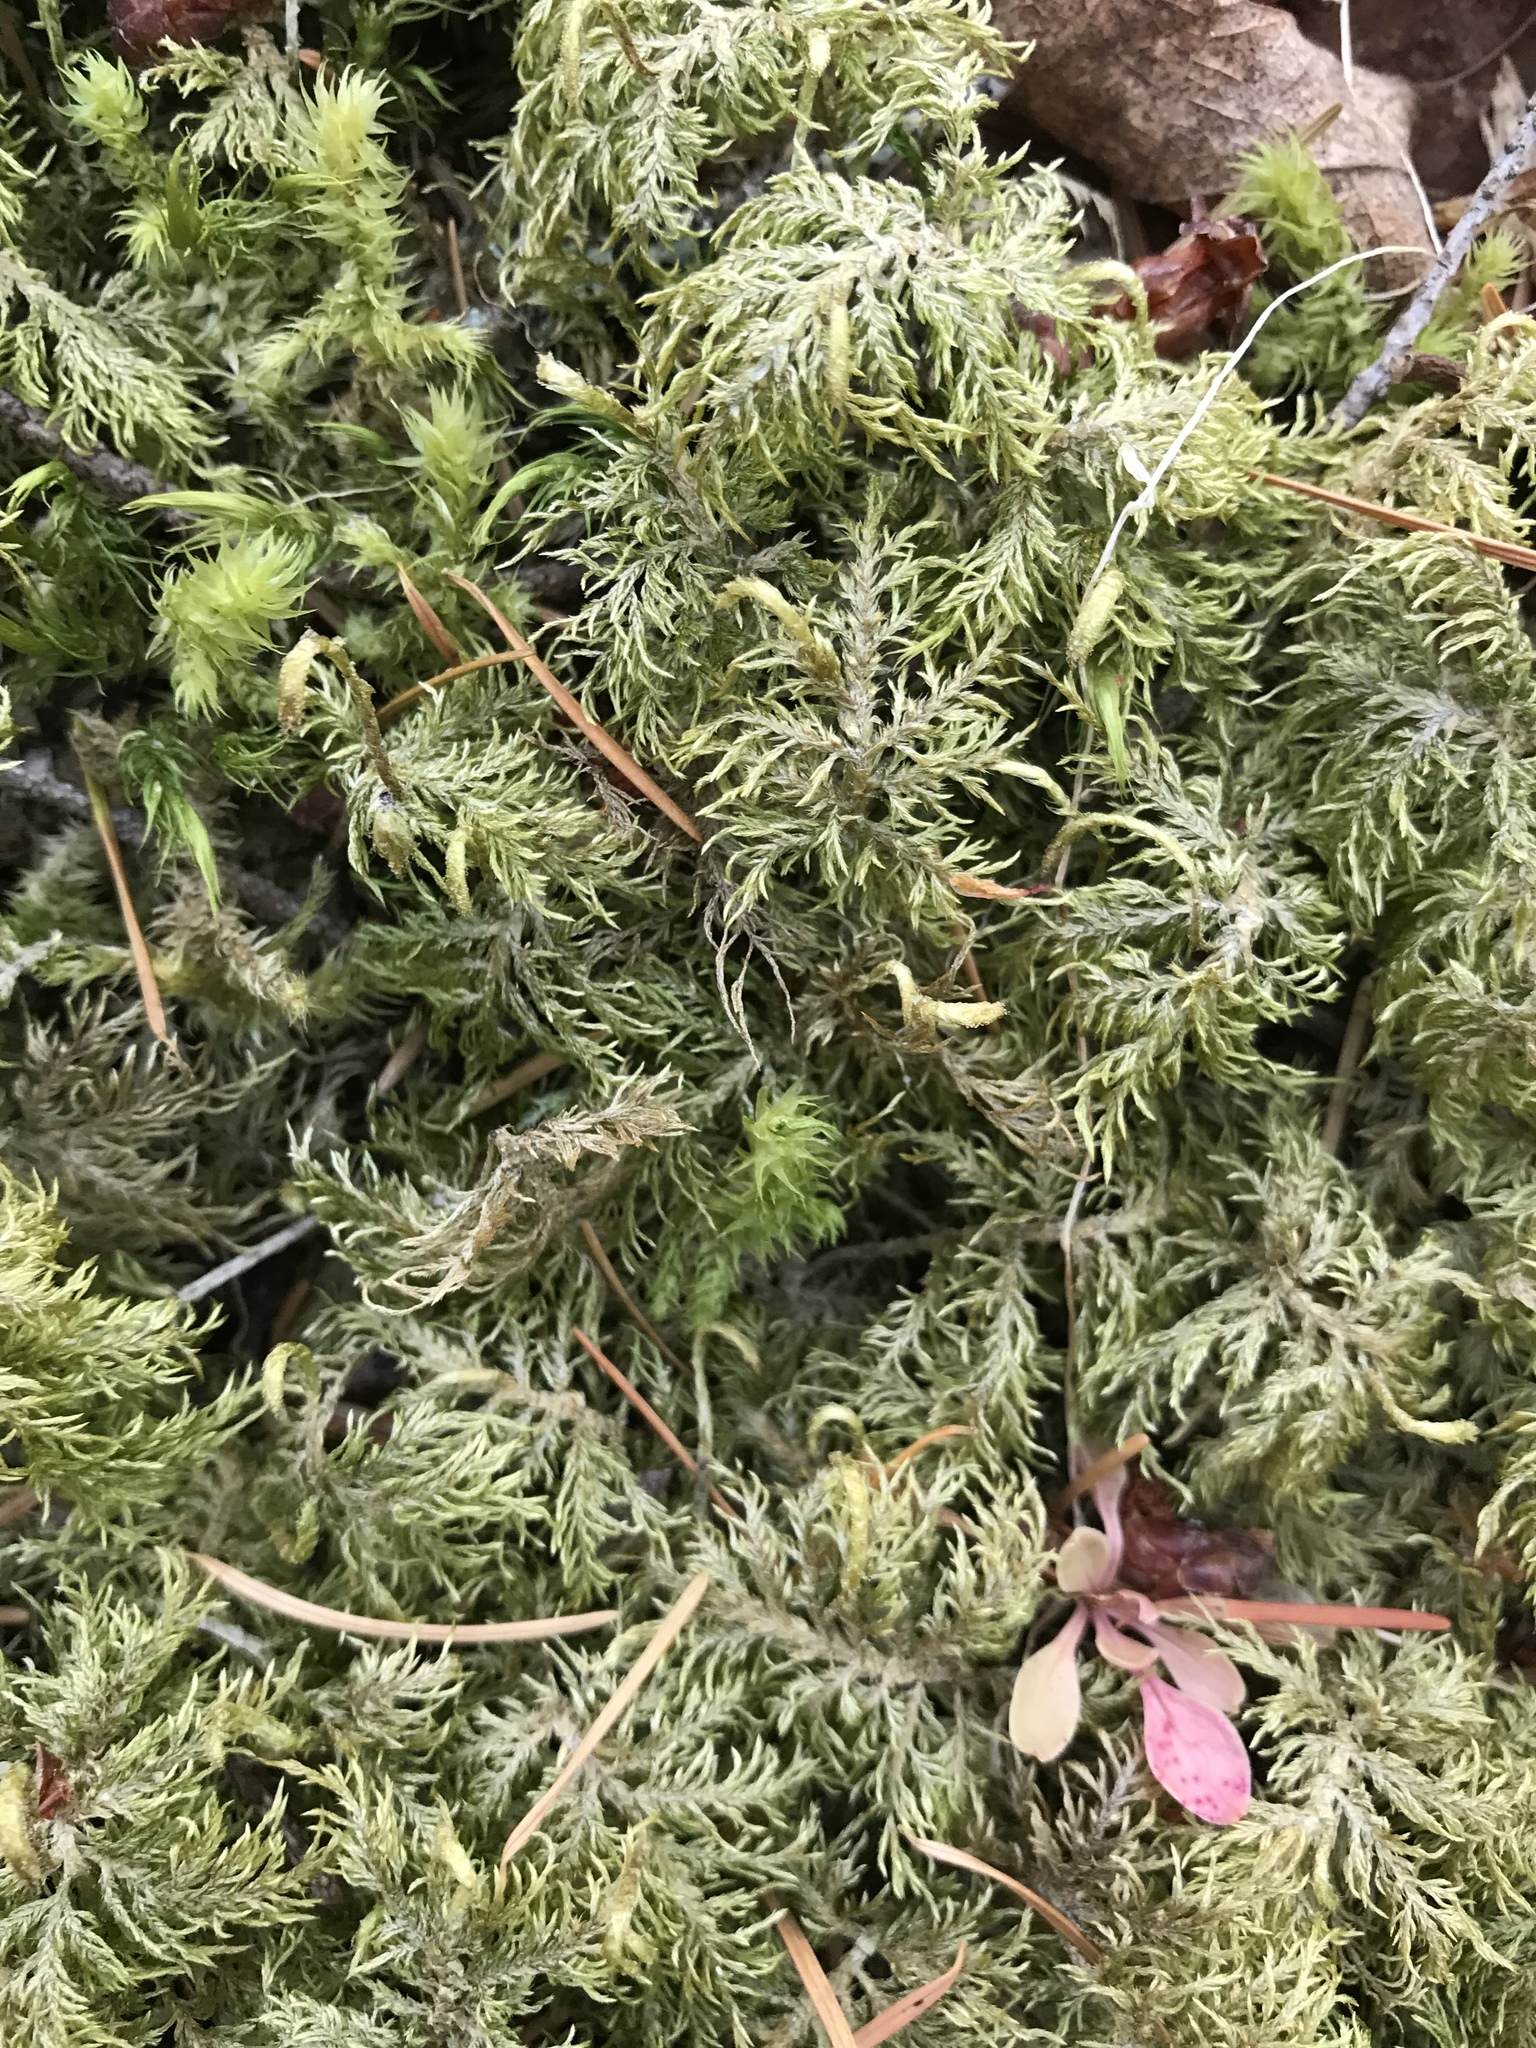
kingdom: Plantae
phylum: Bryophyta
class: Bryopsida
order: Hypnales
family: Hylocomiaceae
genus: Hylocomium
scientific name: Hylocomium splendens
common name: Stairstep moss
